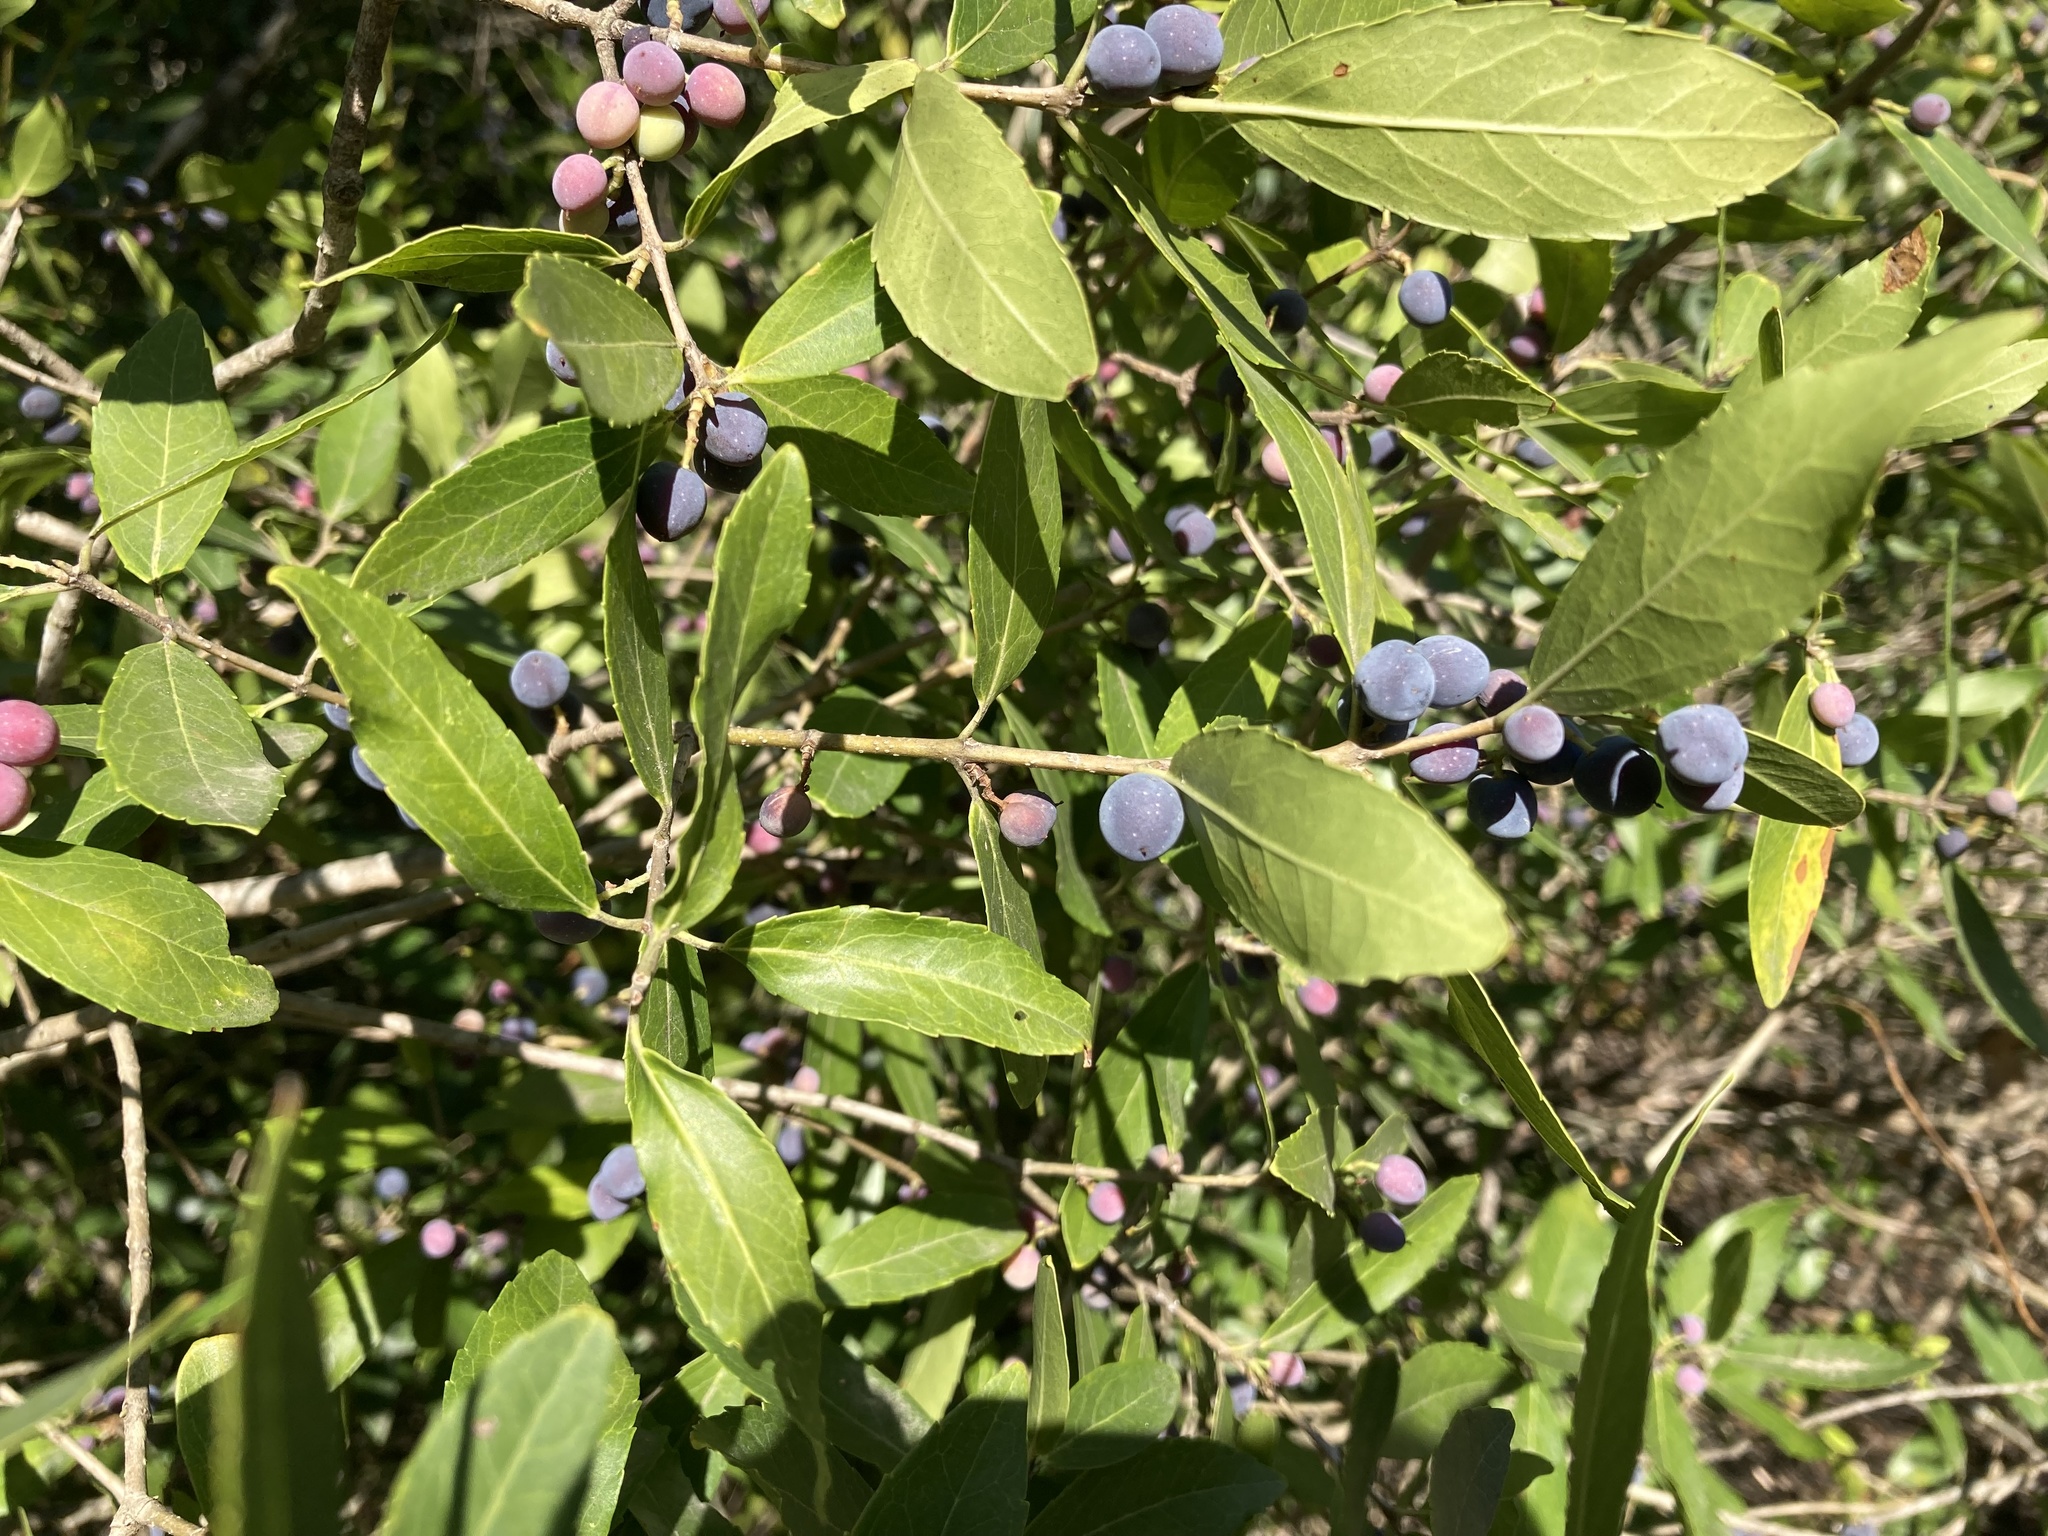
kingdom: Plantae
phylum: Tracheophyta
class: Magnoliopsida
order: Lamiales
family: Oleaceae
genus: Phillyrea
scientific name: Phillyrea latifolia
